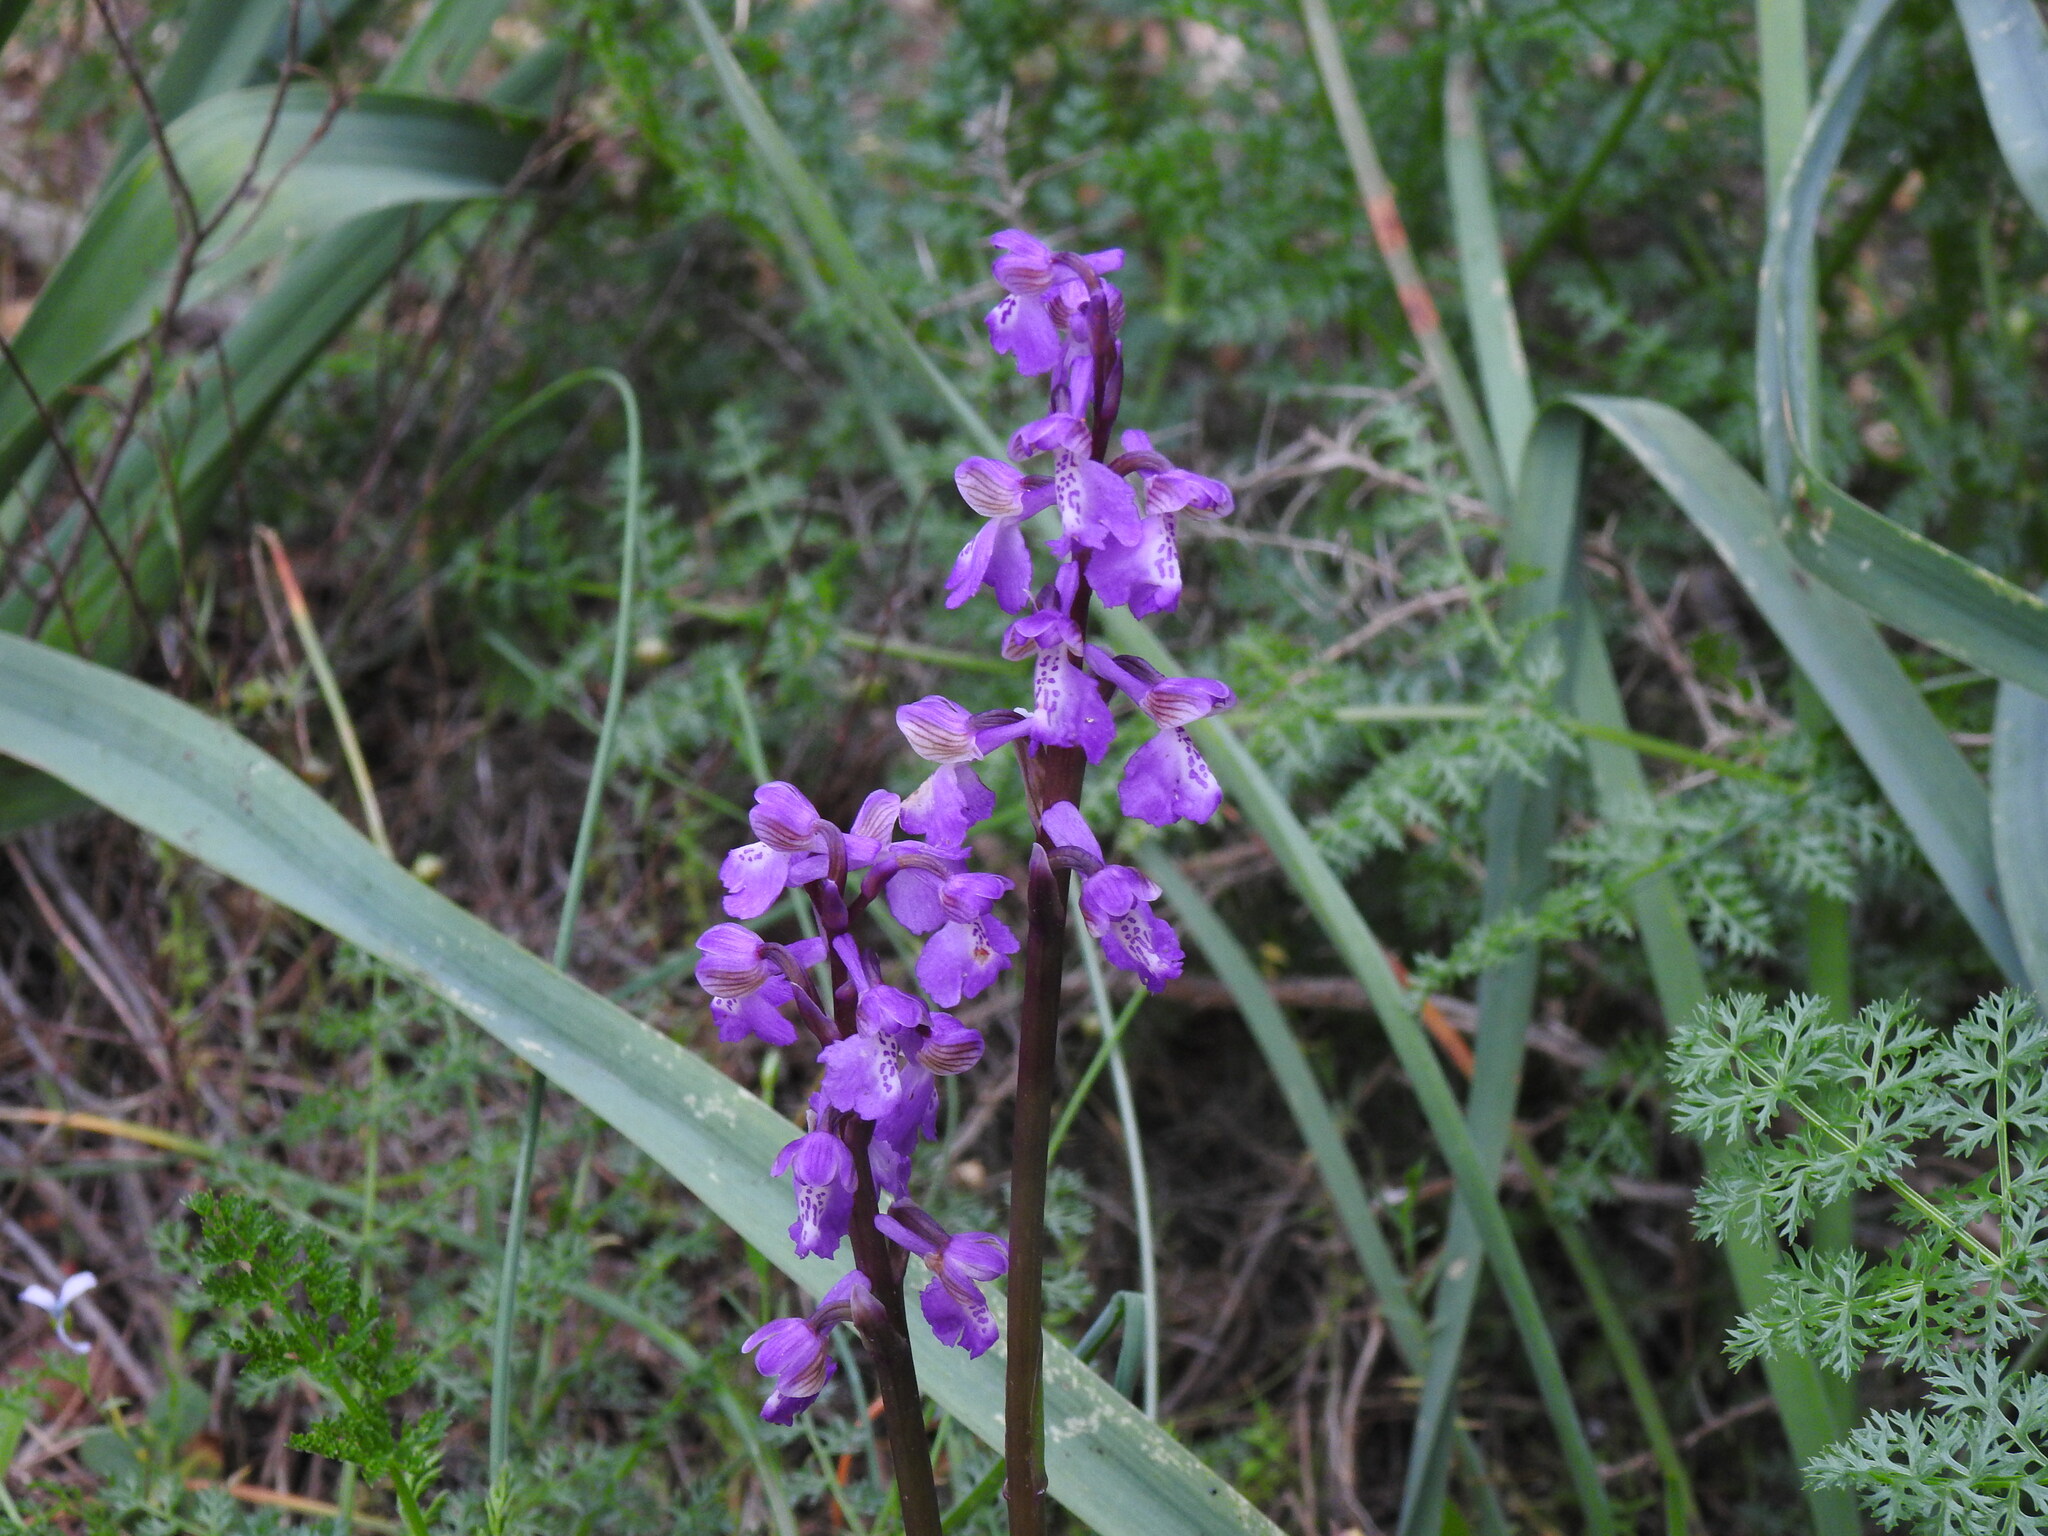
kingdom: Plantae
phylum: Tracheophyta
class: Liliopsida
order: Asparagales
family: Orchidaceae
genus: Anacamptis
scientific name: Anacamptis morio
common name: Green-winged orchid
